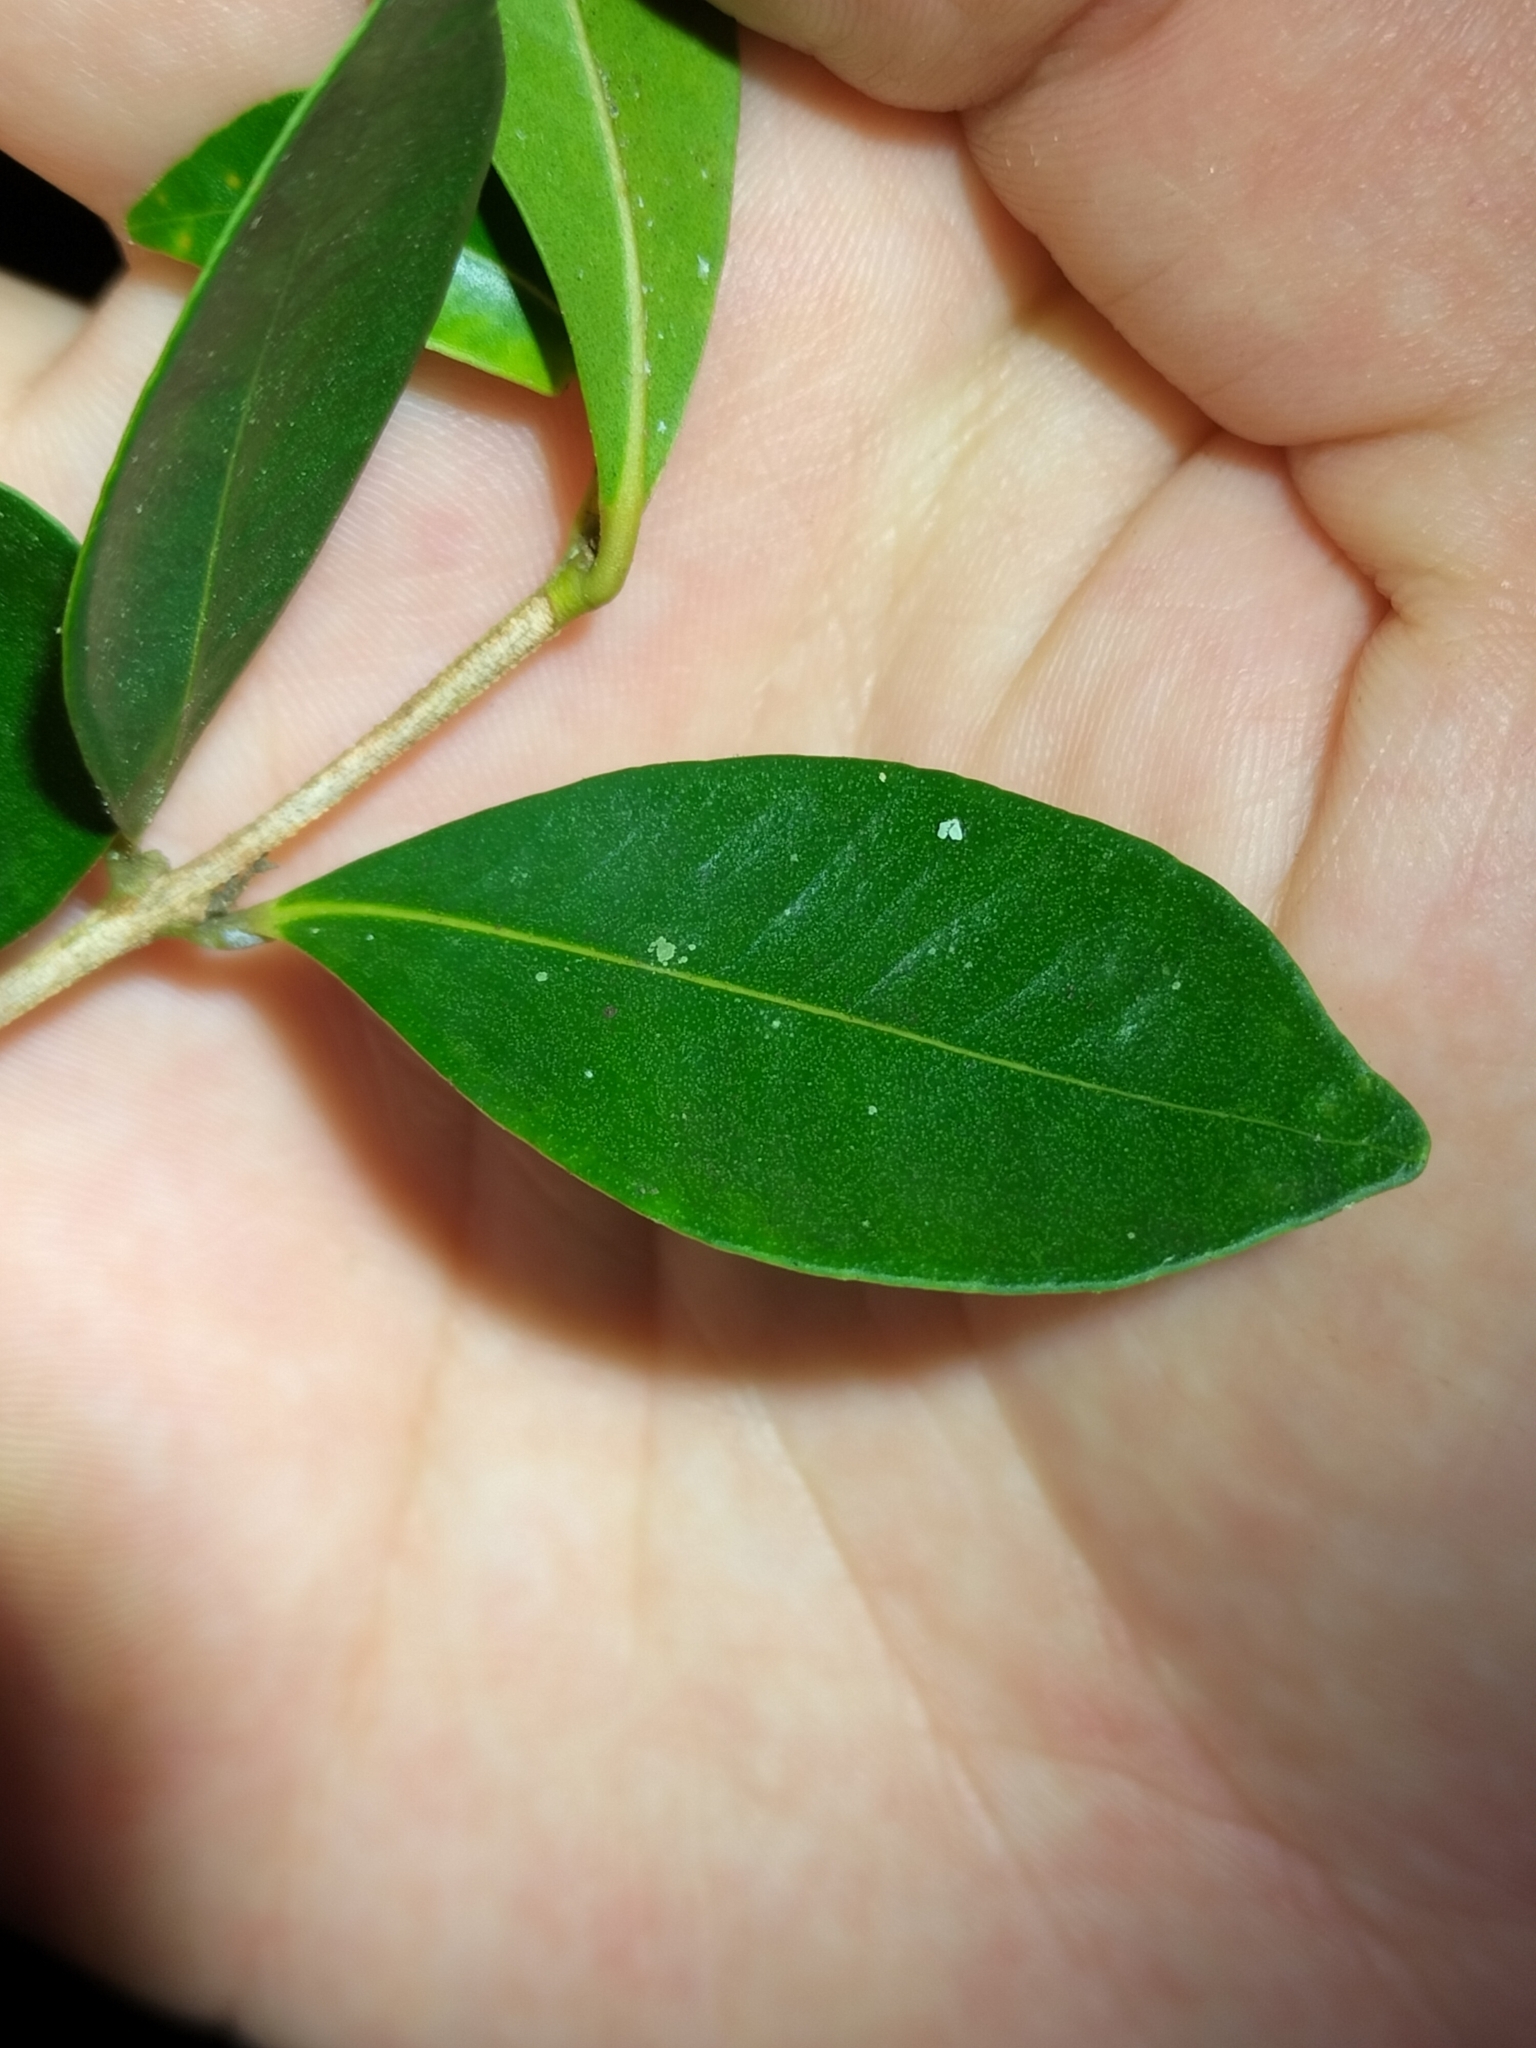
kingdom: Plantae
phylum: Tracheophyta
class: Magnoliopsida
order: Myrtales
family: Myrtaceae
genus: Syzygium
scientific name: Syzygium smithii
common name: Lilly-pilly
